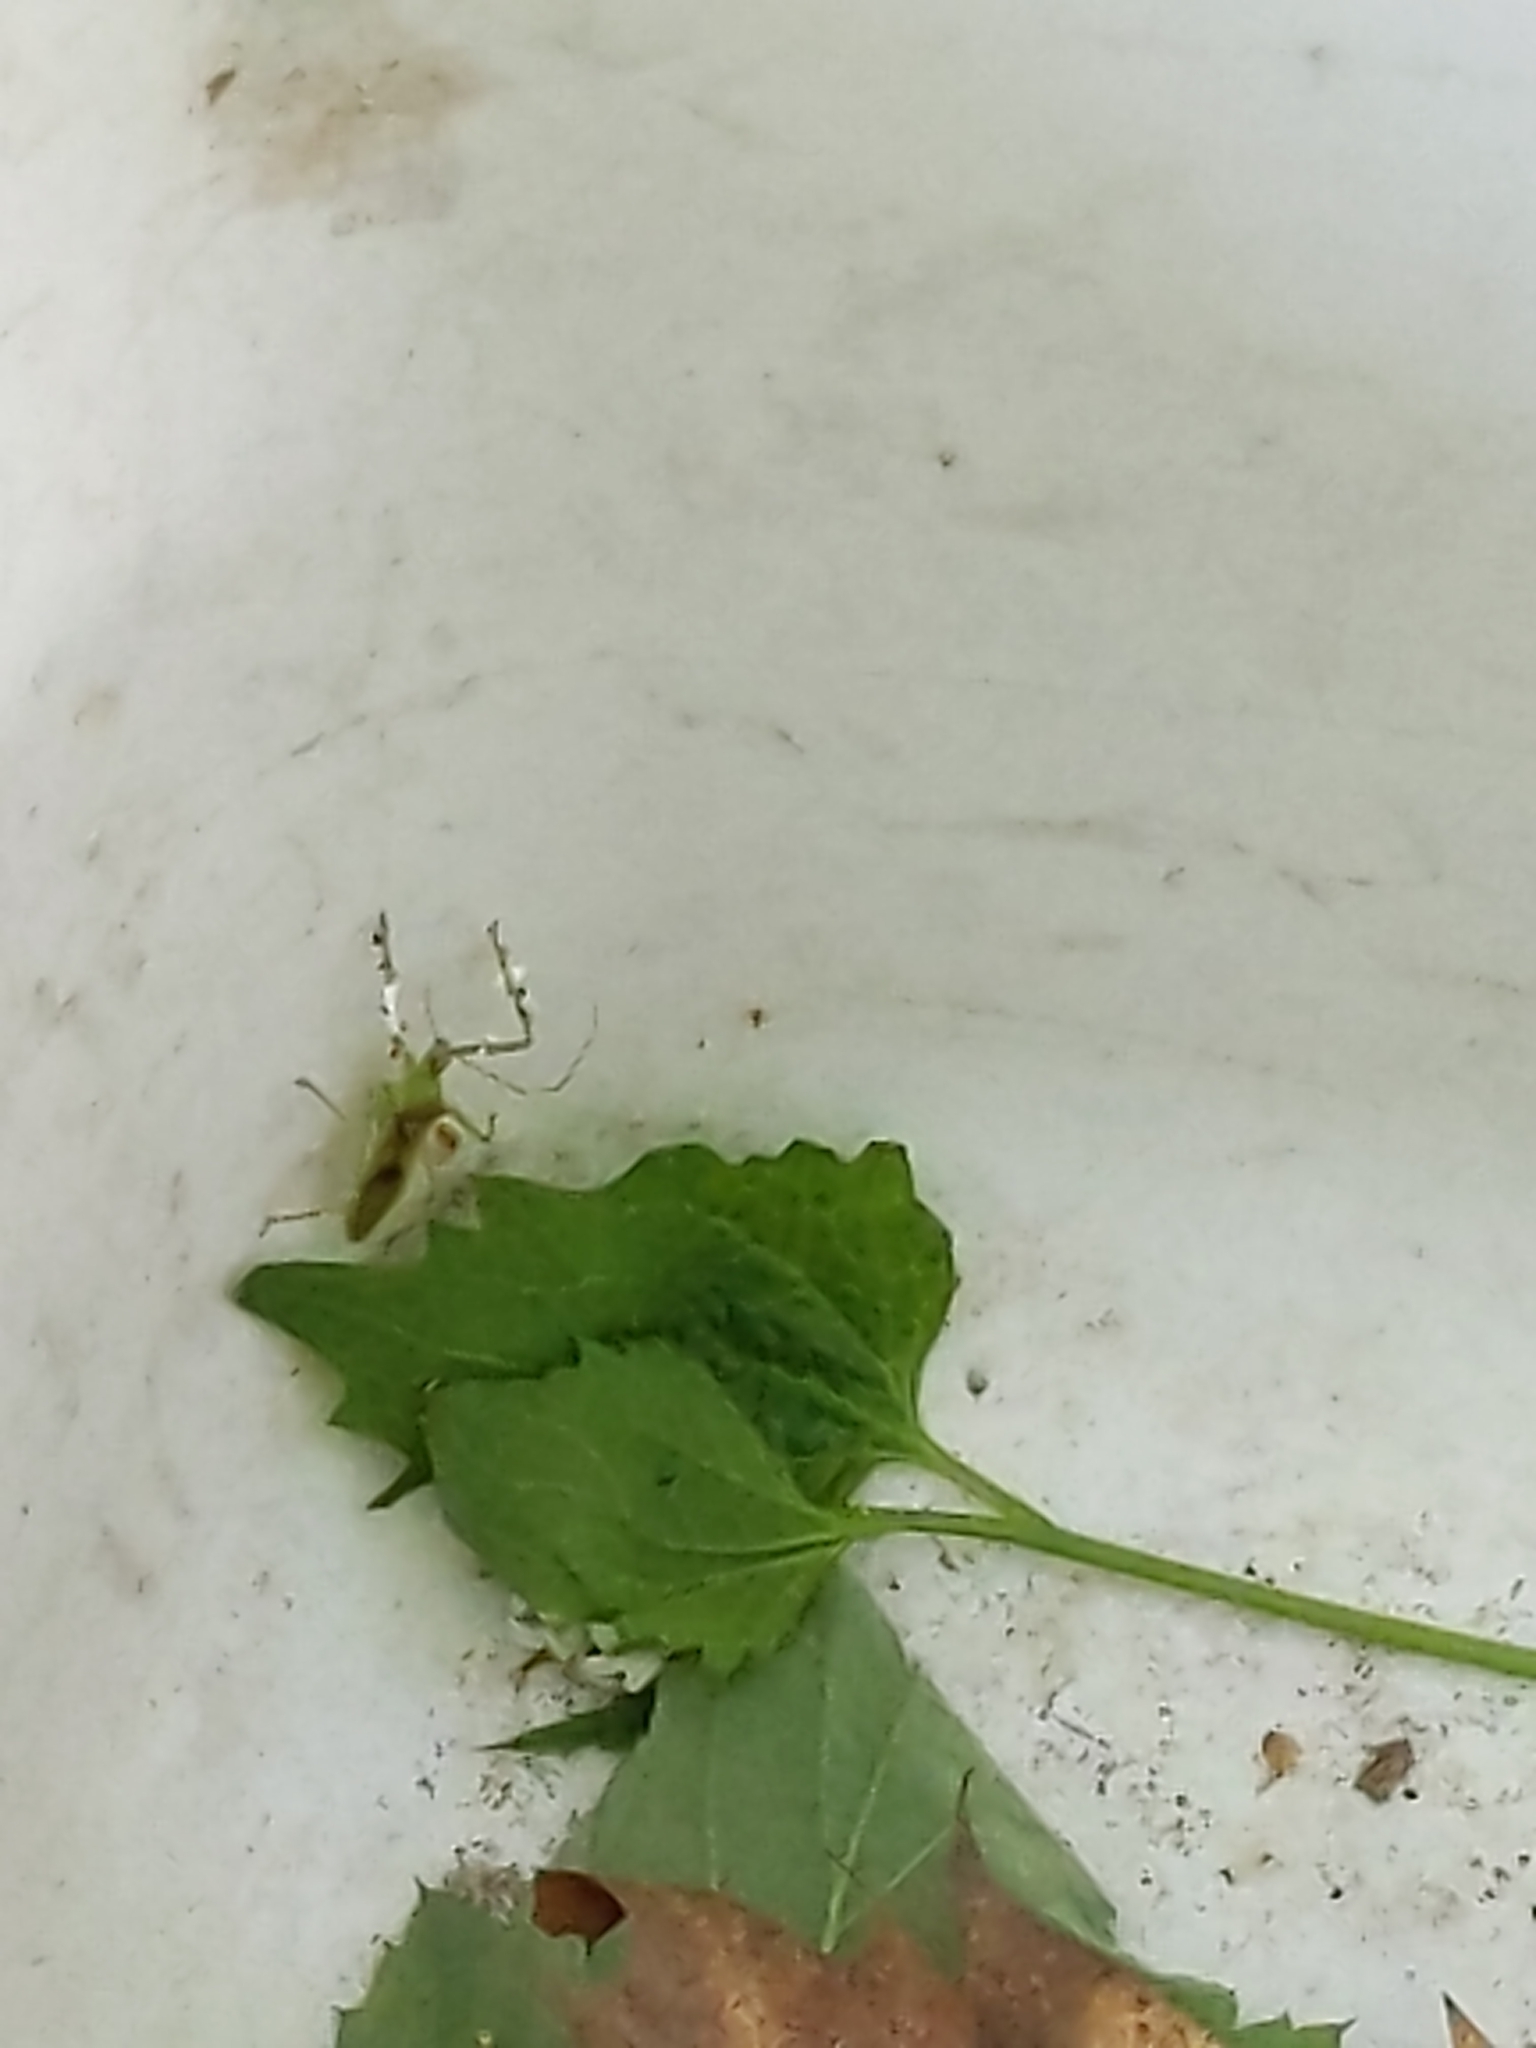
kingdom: Animalia
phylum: Arthropoda
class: Insecta
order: Hemiptera
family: Reduviidae
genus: Zelus
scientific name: Zelus luridus
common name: Pale green assassin bug
